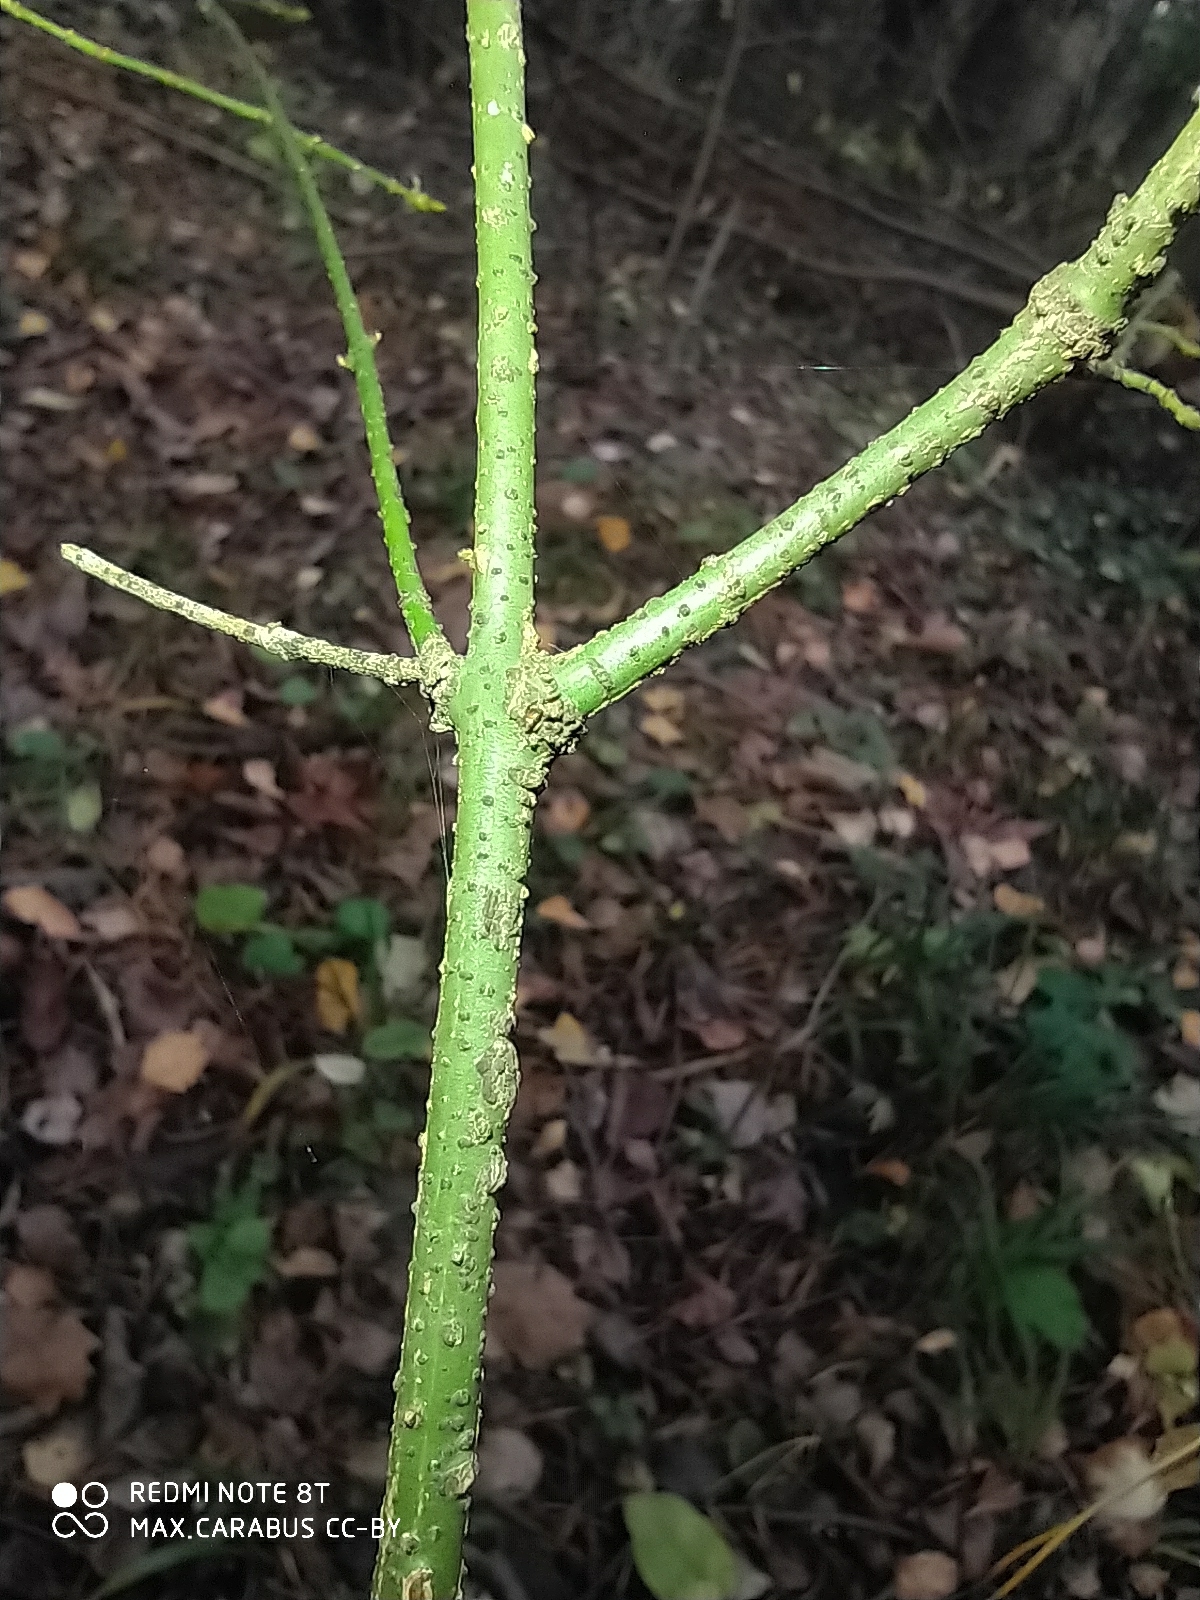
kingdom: Plantae
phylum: Tracheophyta
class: Magnoliopsida
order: Celastrales
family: Celastraceae
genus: Euonymus
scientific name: Euonymus verrucosus
